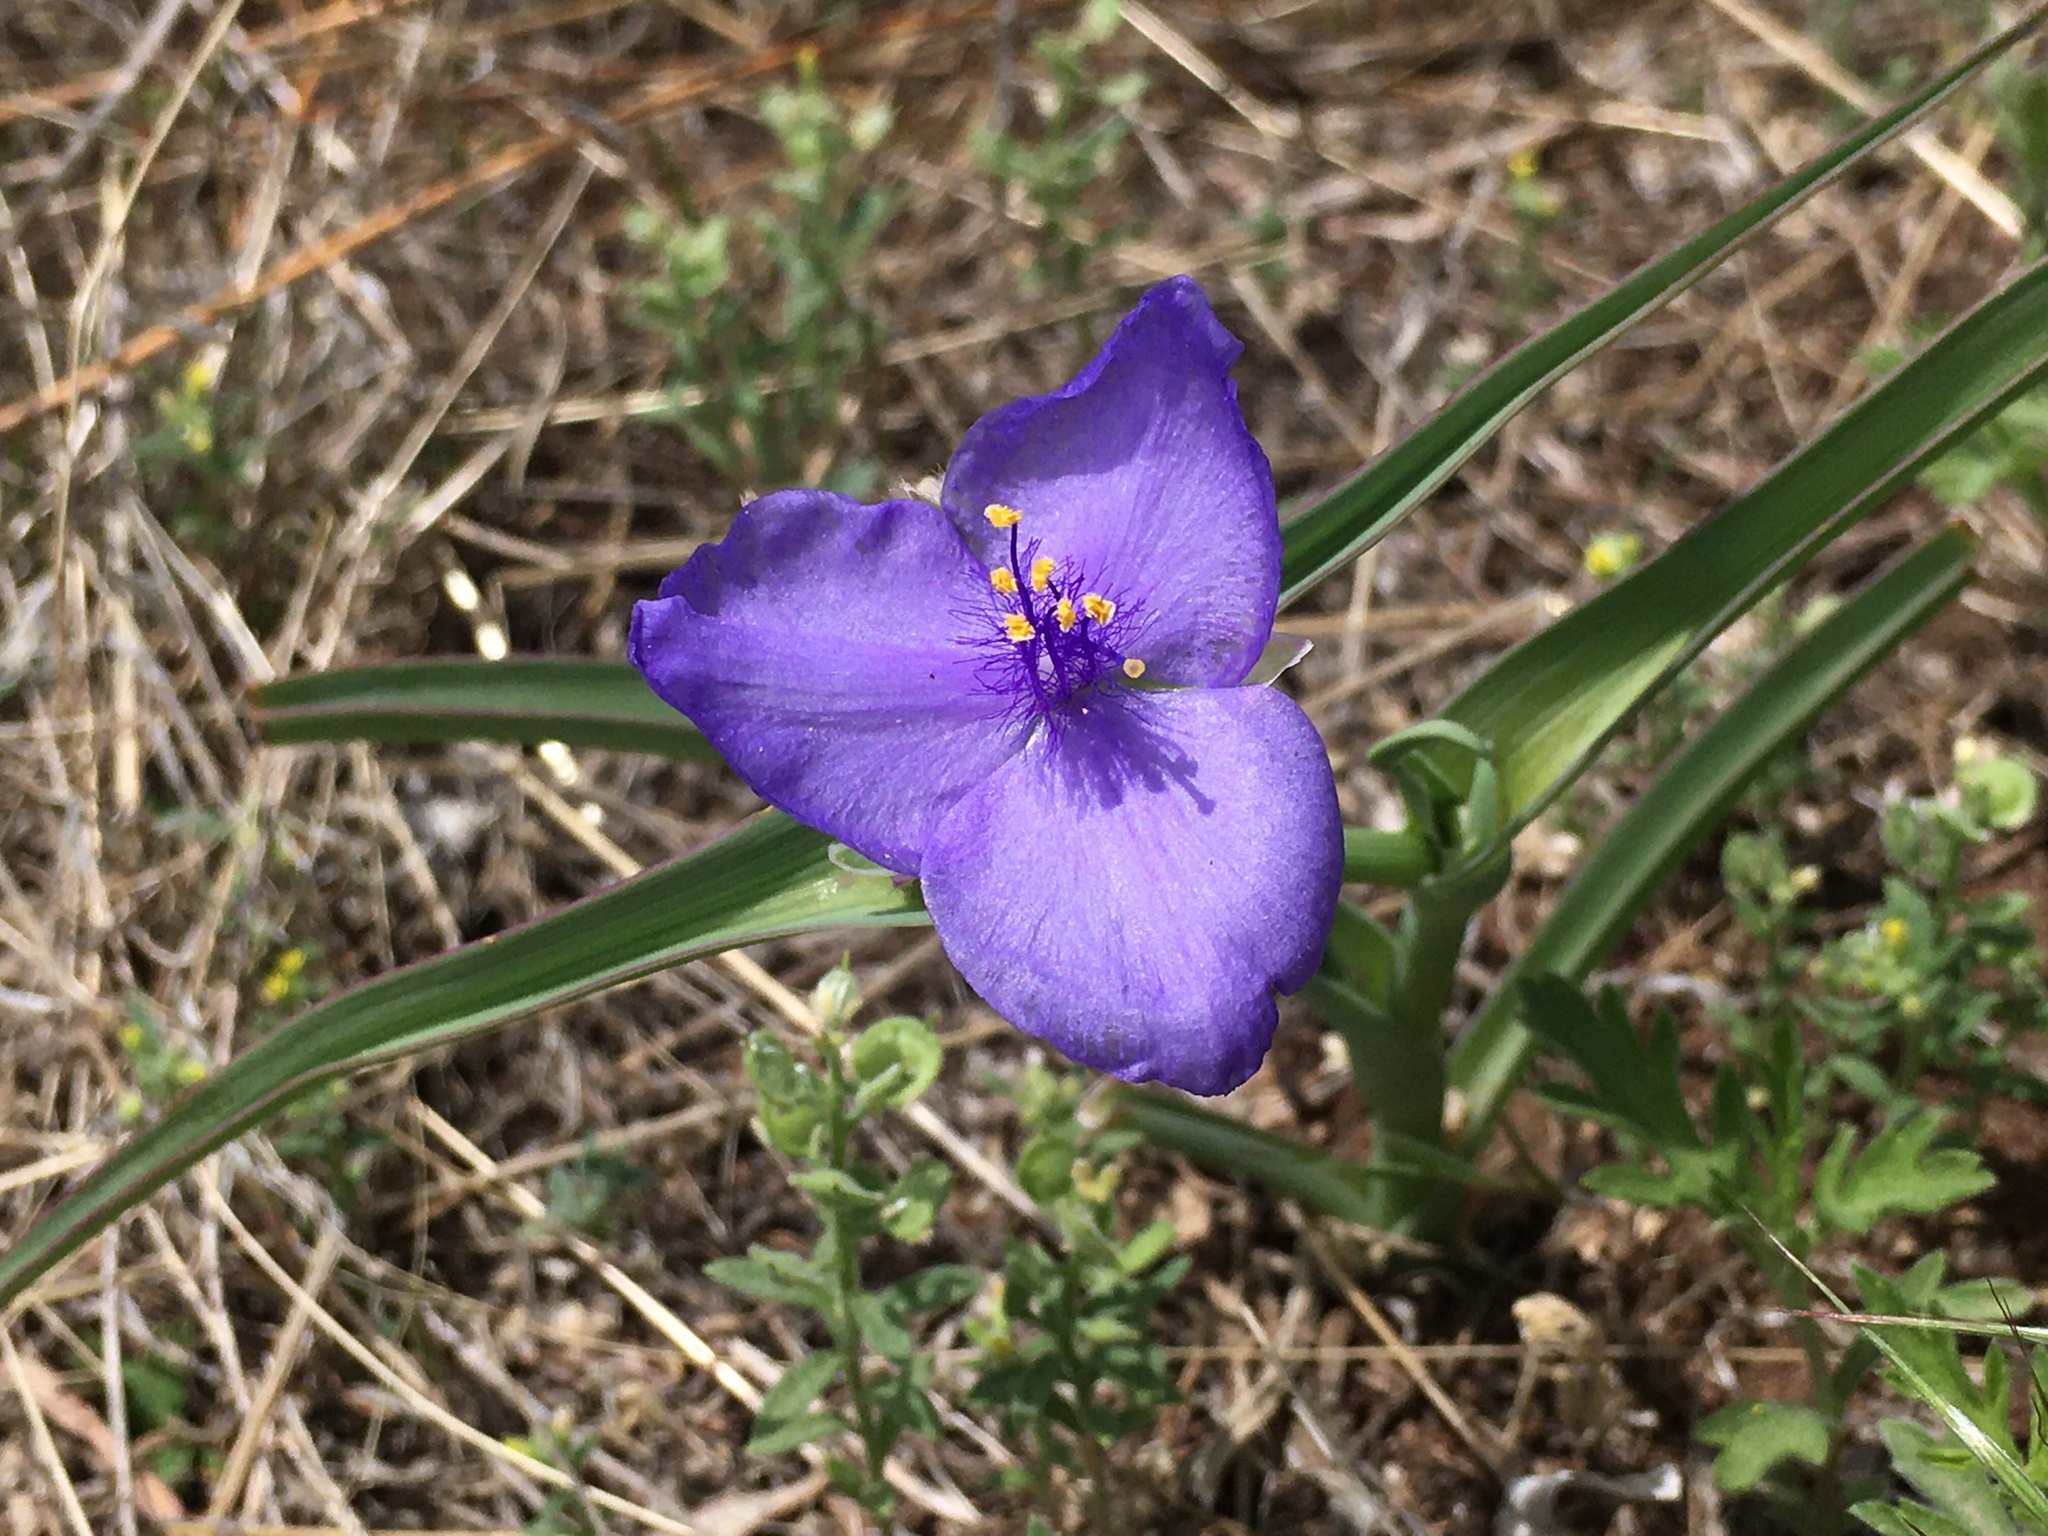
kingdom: Plantae
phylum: Tracheophyta
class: Liliopsida
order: Commelinales
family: Commelinaceae
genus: Tradescantia
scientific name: Tradescantia occidentalis
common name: Prairie spiderwort
